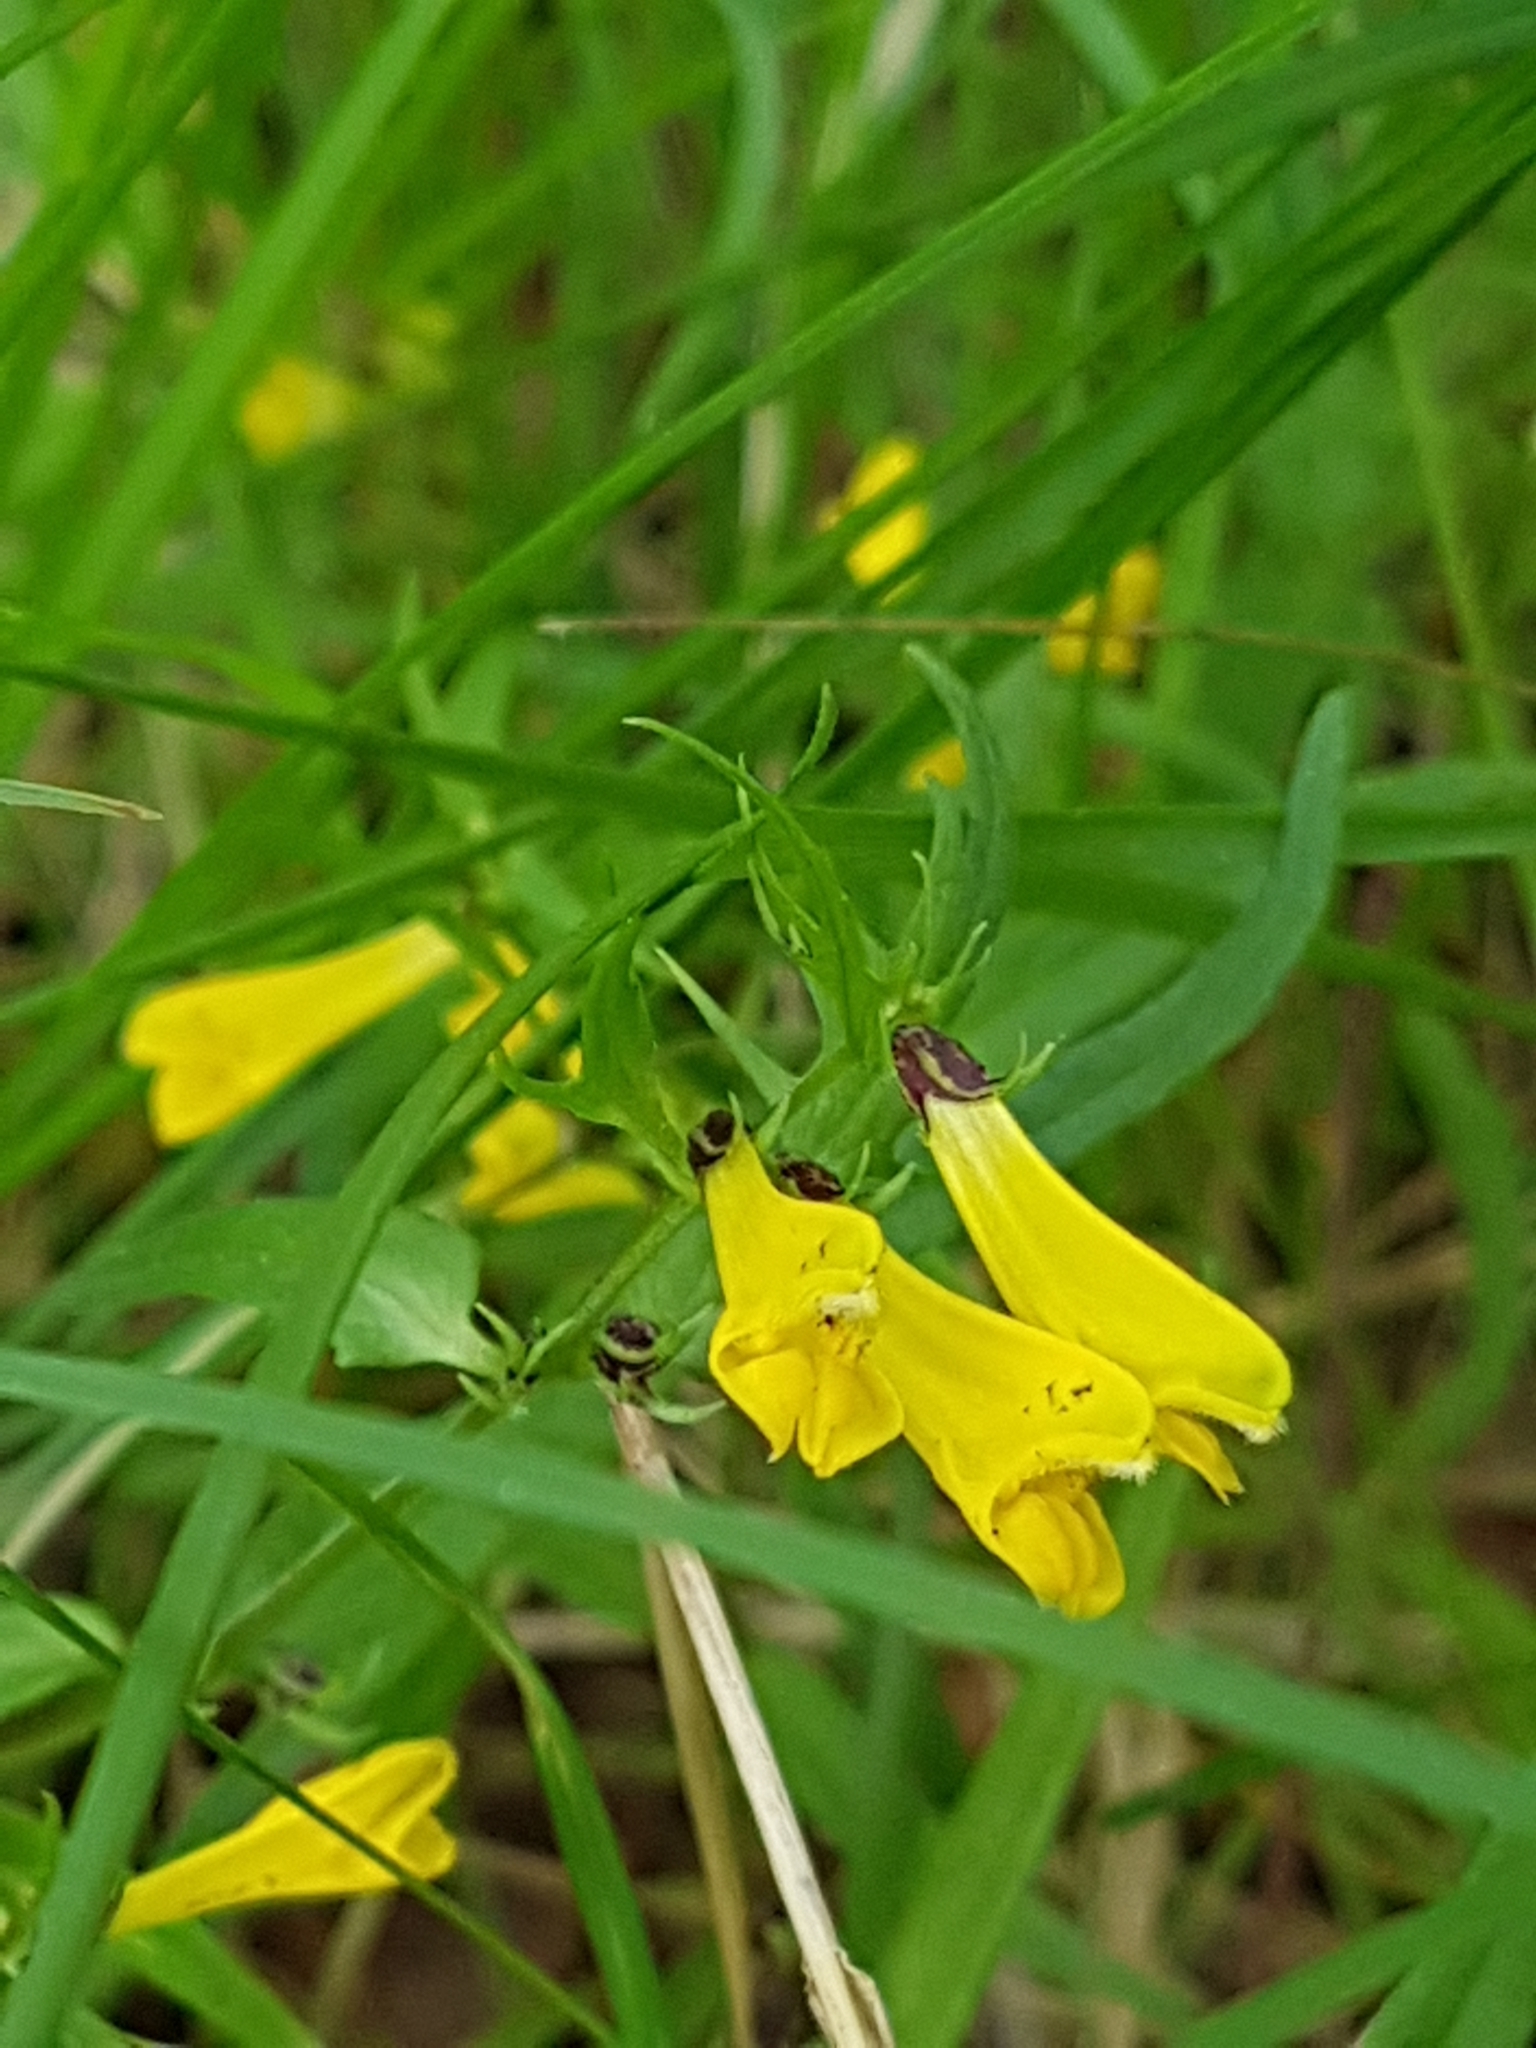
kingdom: Plantae
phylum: Tracheophyta
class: Magnoliopsida
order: Lamiales
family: Orobanchaceae
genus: Melampyrum
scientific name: Melampyrum pratense
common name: Common cow-wheat
